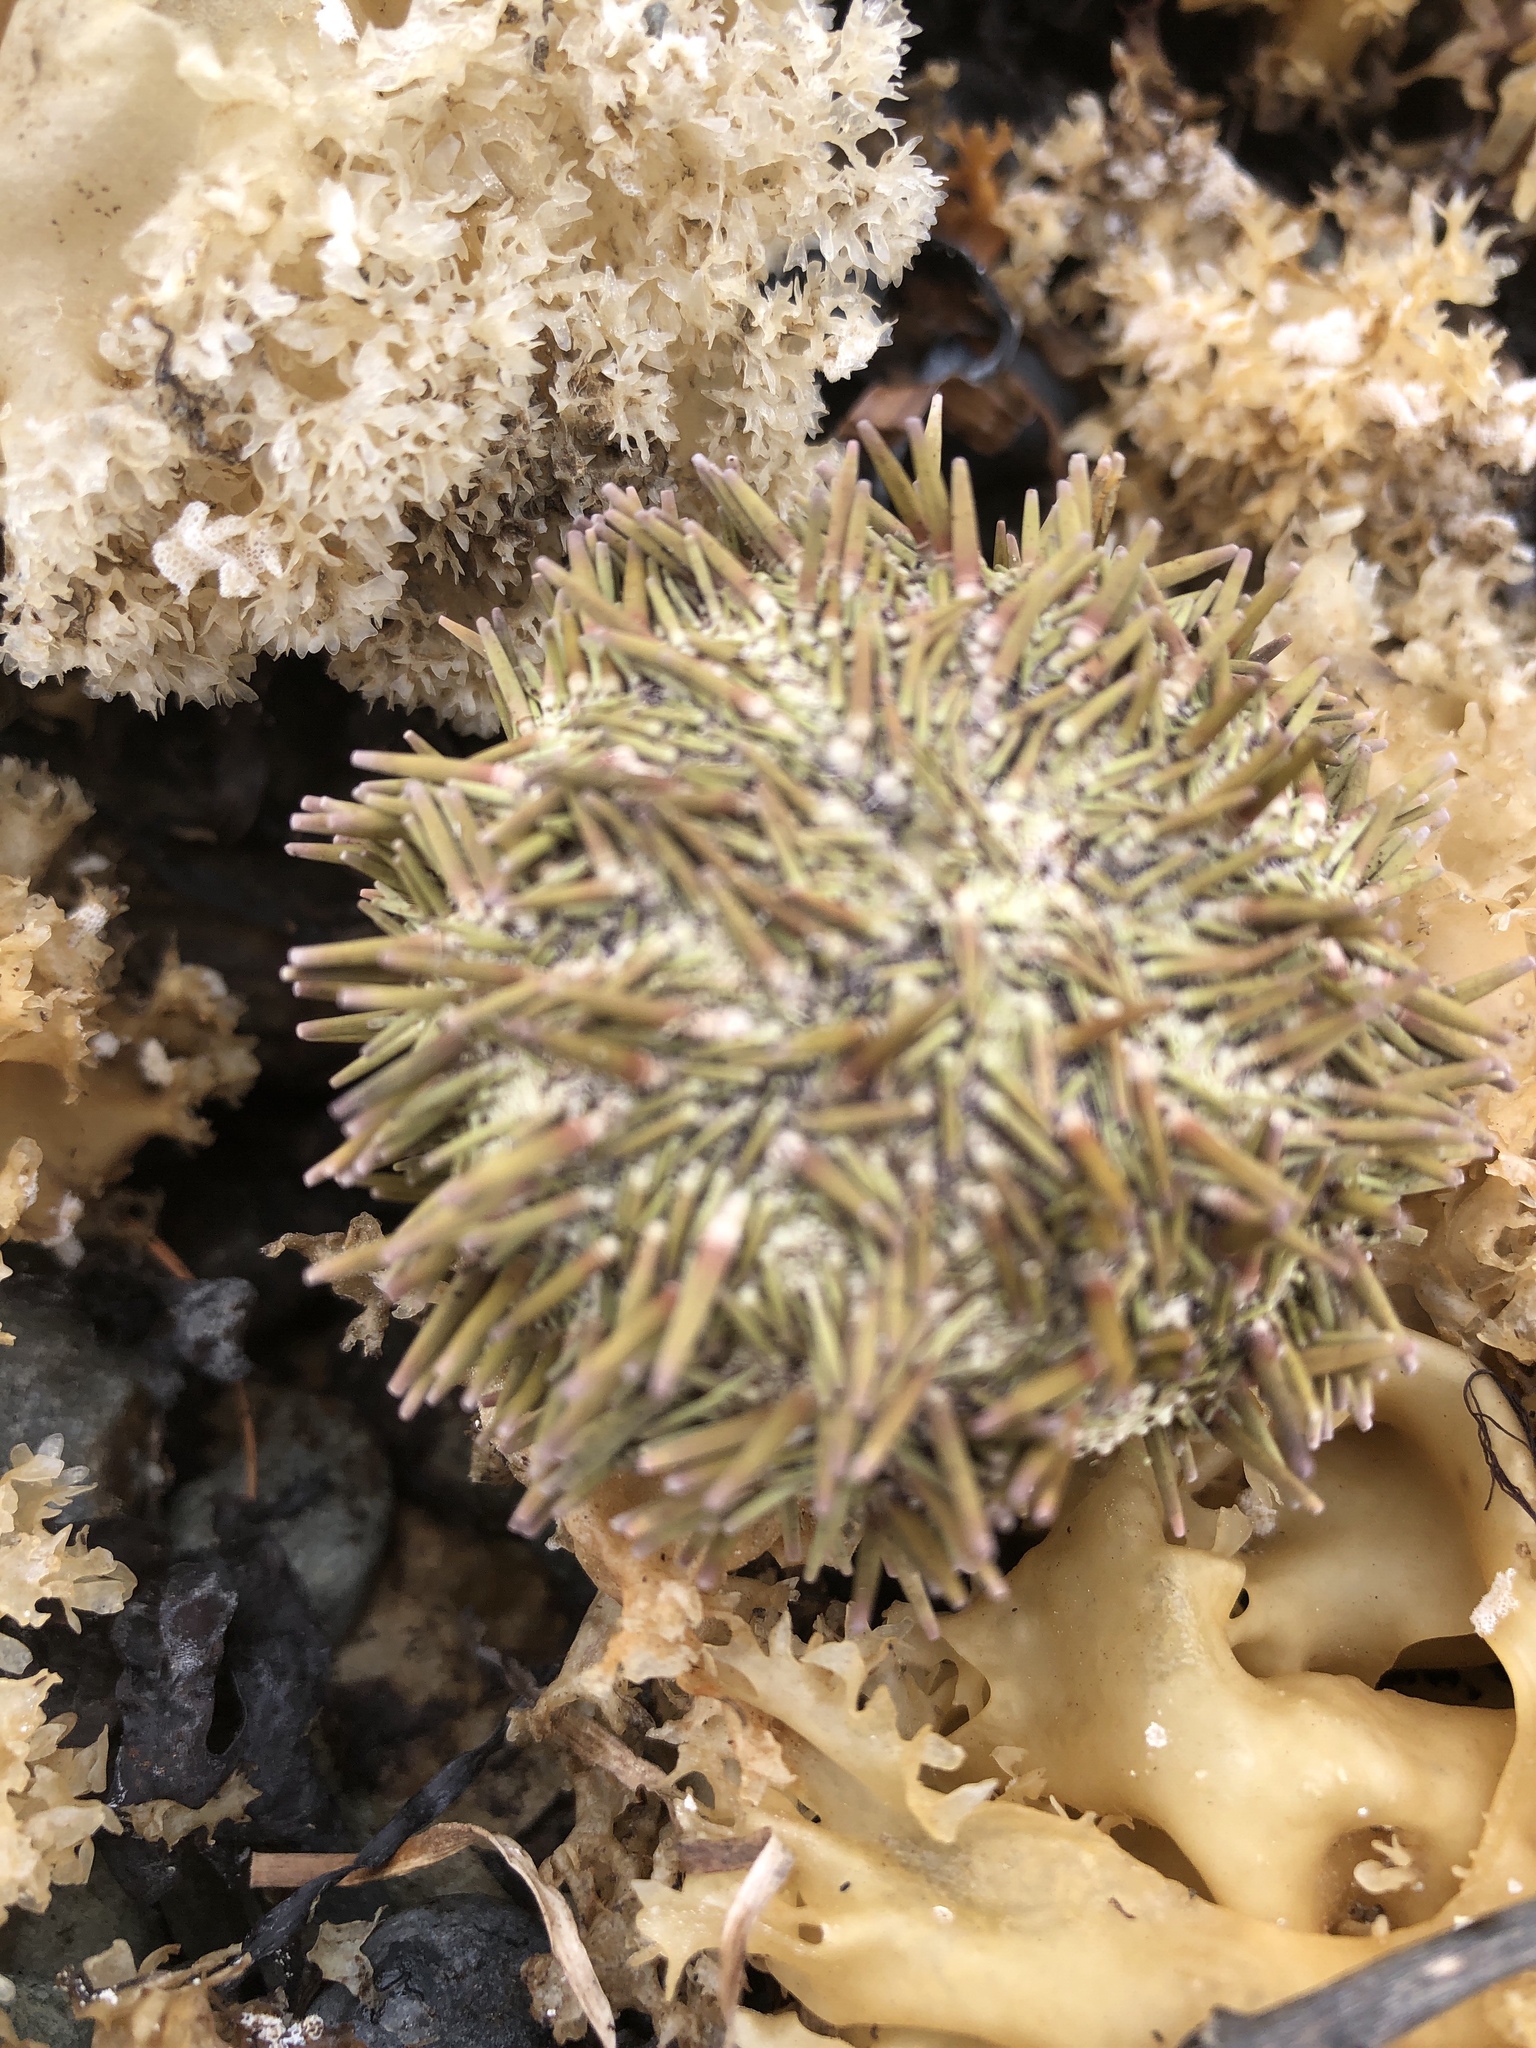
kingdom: Animalia
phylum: Echinodermata
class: Echinoidea
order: Camarodonta
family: Strongylocentrotidae
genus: Strongylocentrotus
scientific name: Strongylocentrotus droebachiensis
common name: Northern sea urchin
